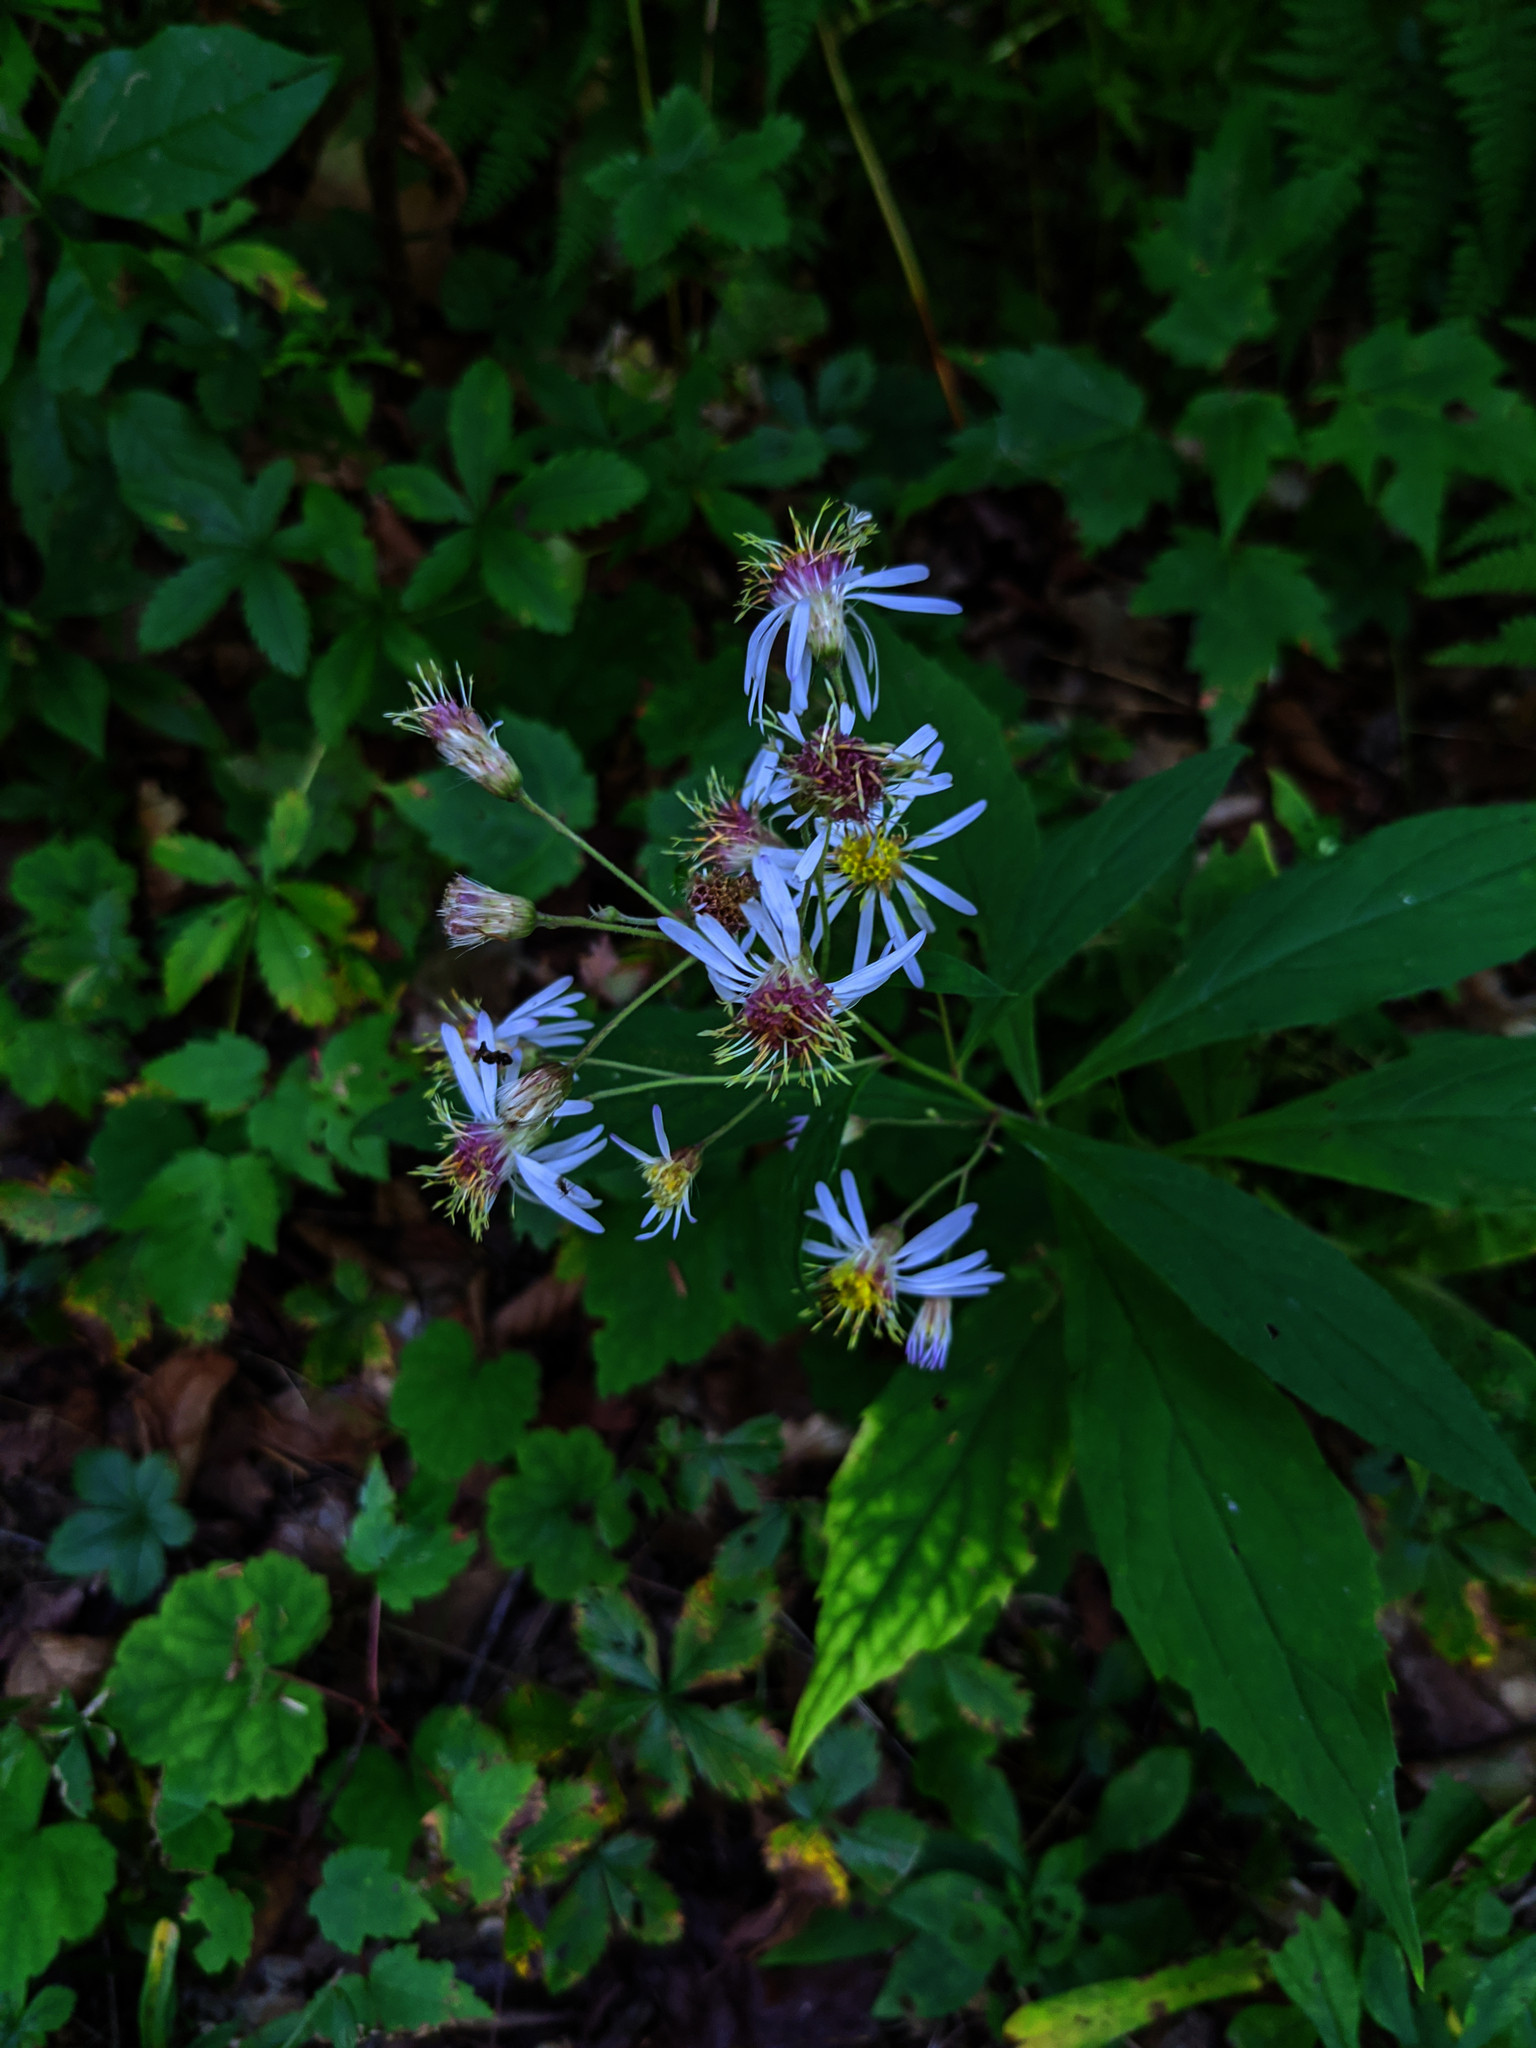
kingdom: Plantae
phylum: Tracheophyta
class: Magnoliopsida
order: Asterales
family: Asteraceae
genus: Oclemena
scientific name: Oclemena acuminata
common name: Mountain aster
